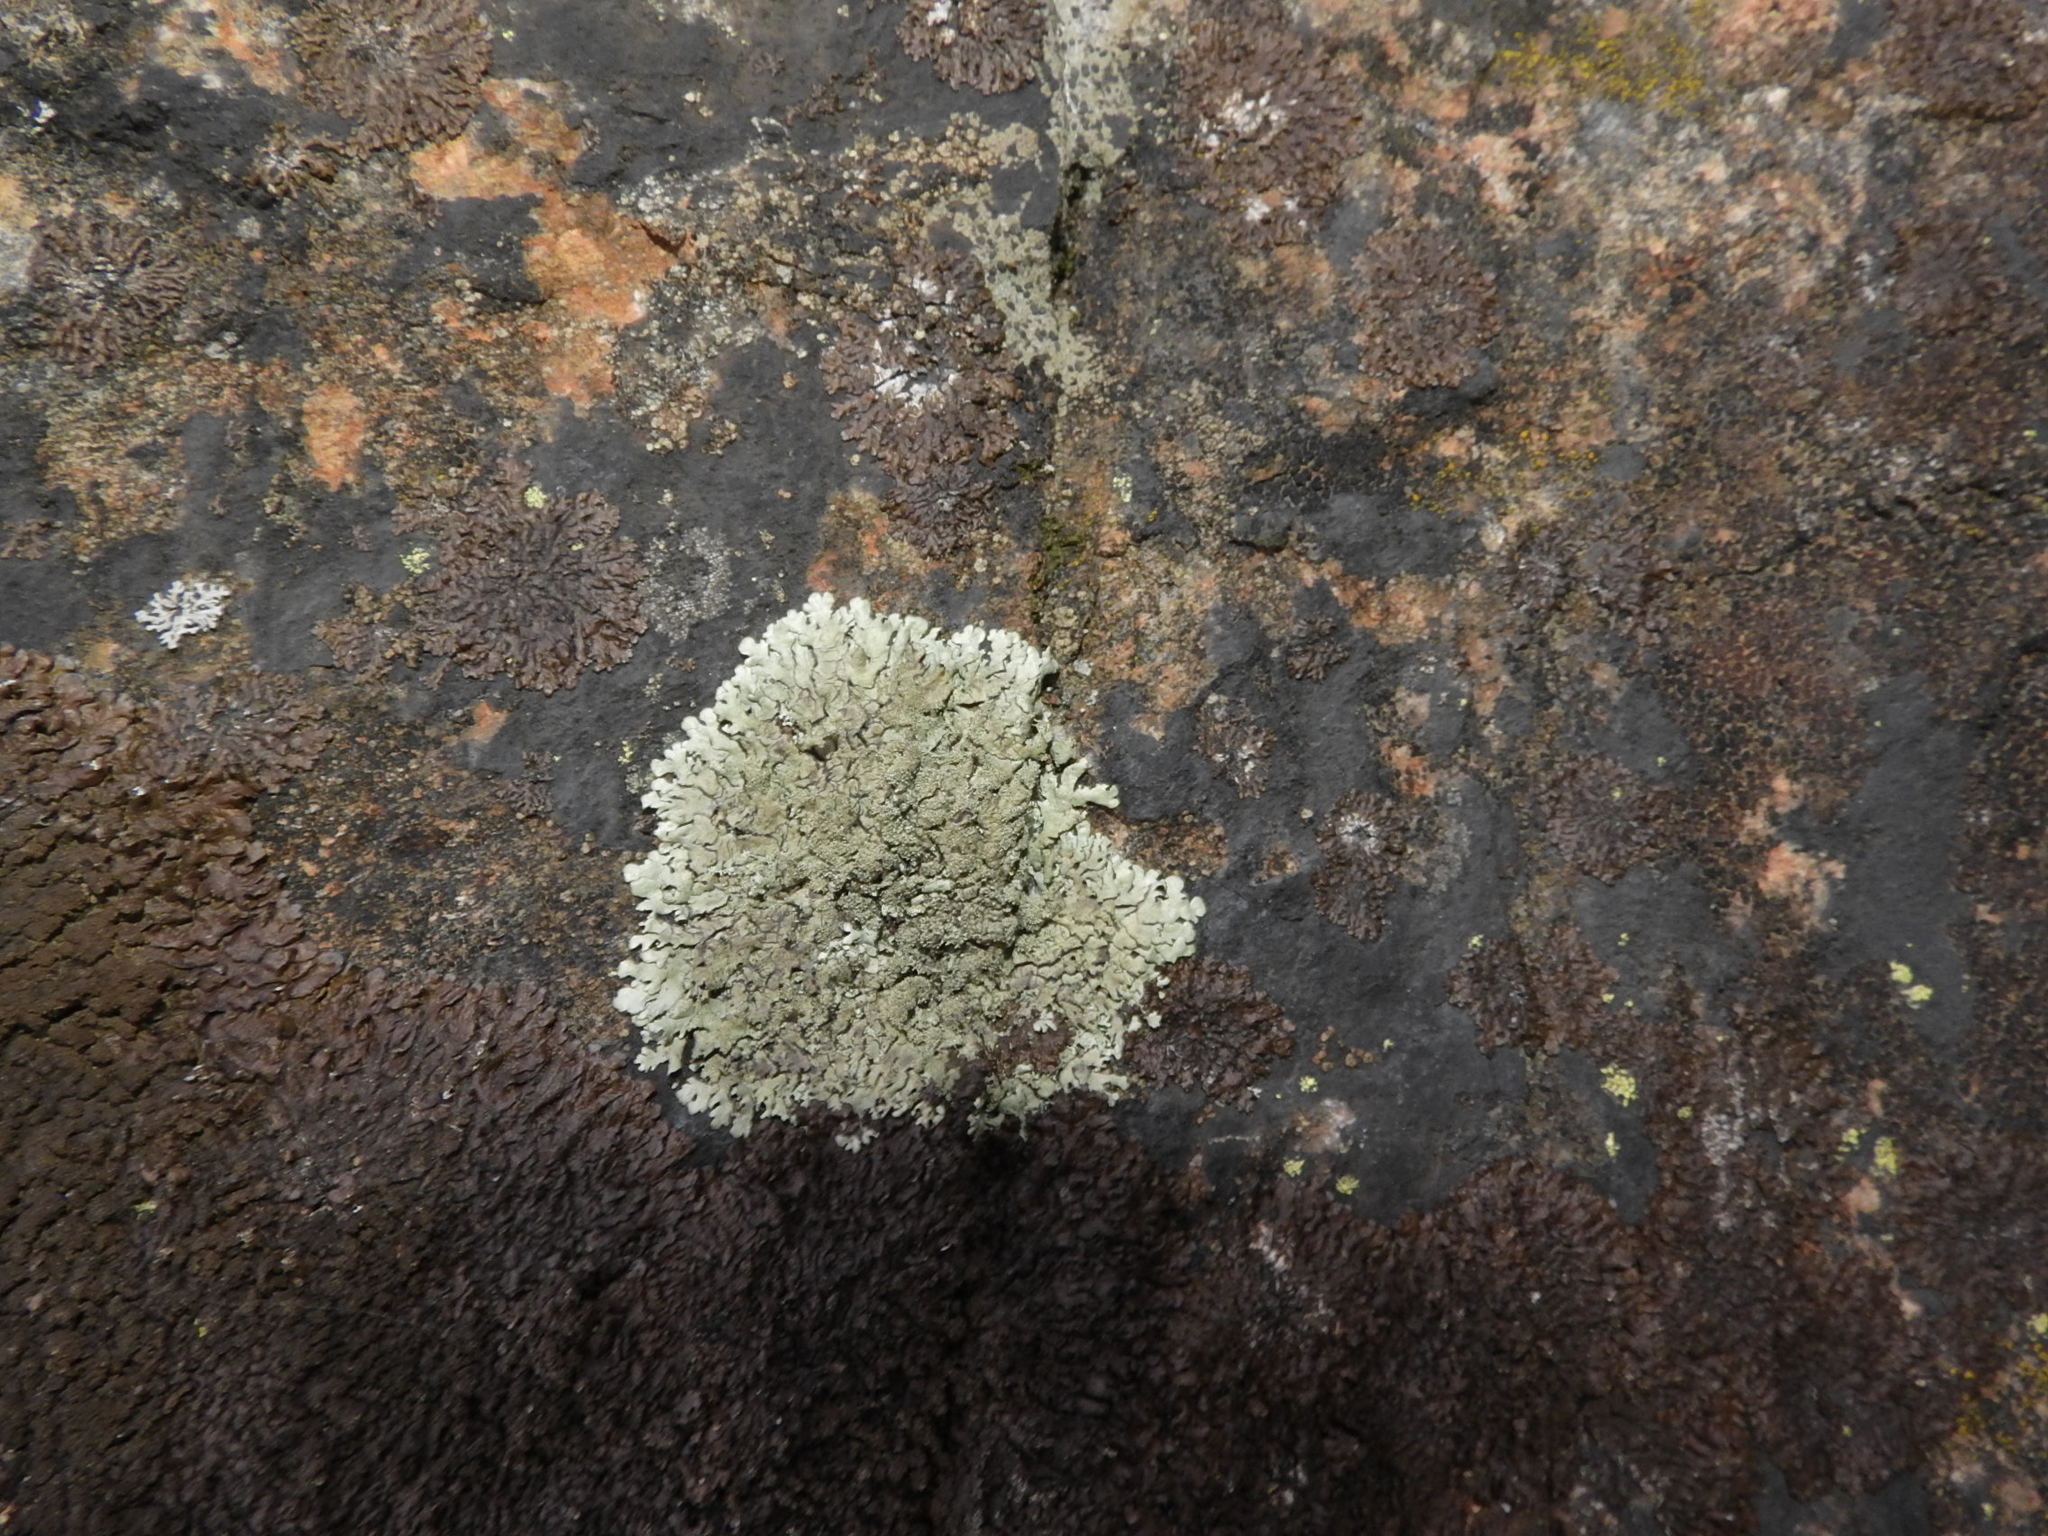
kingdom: Fungi
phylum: Ascomycota
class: Lecanoromycetes
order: Lecanorales
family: Parmeliaceae
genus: Xanthoparmelia
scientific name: Xanthoparmelia conspersa
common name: Peppered rock shield
